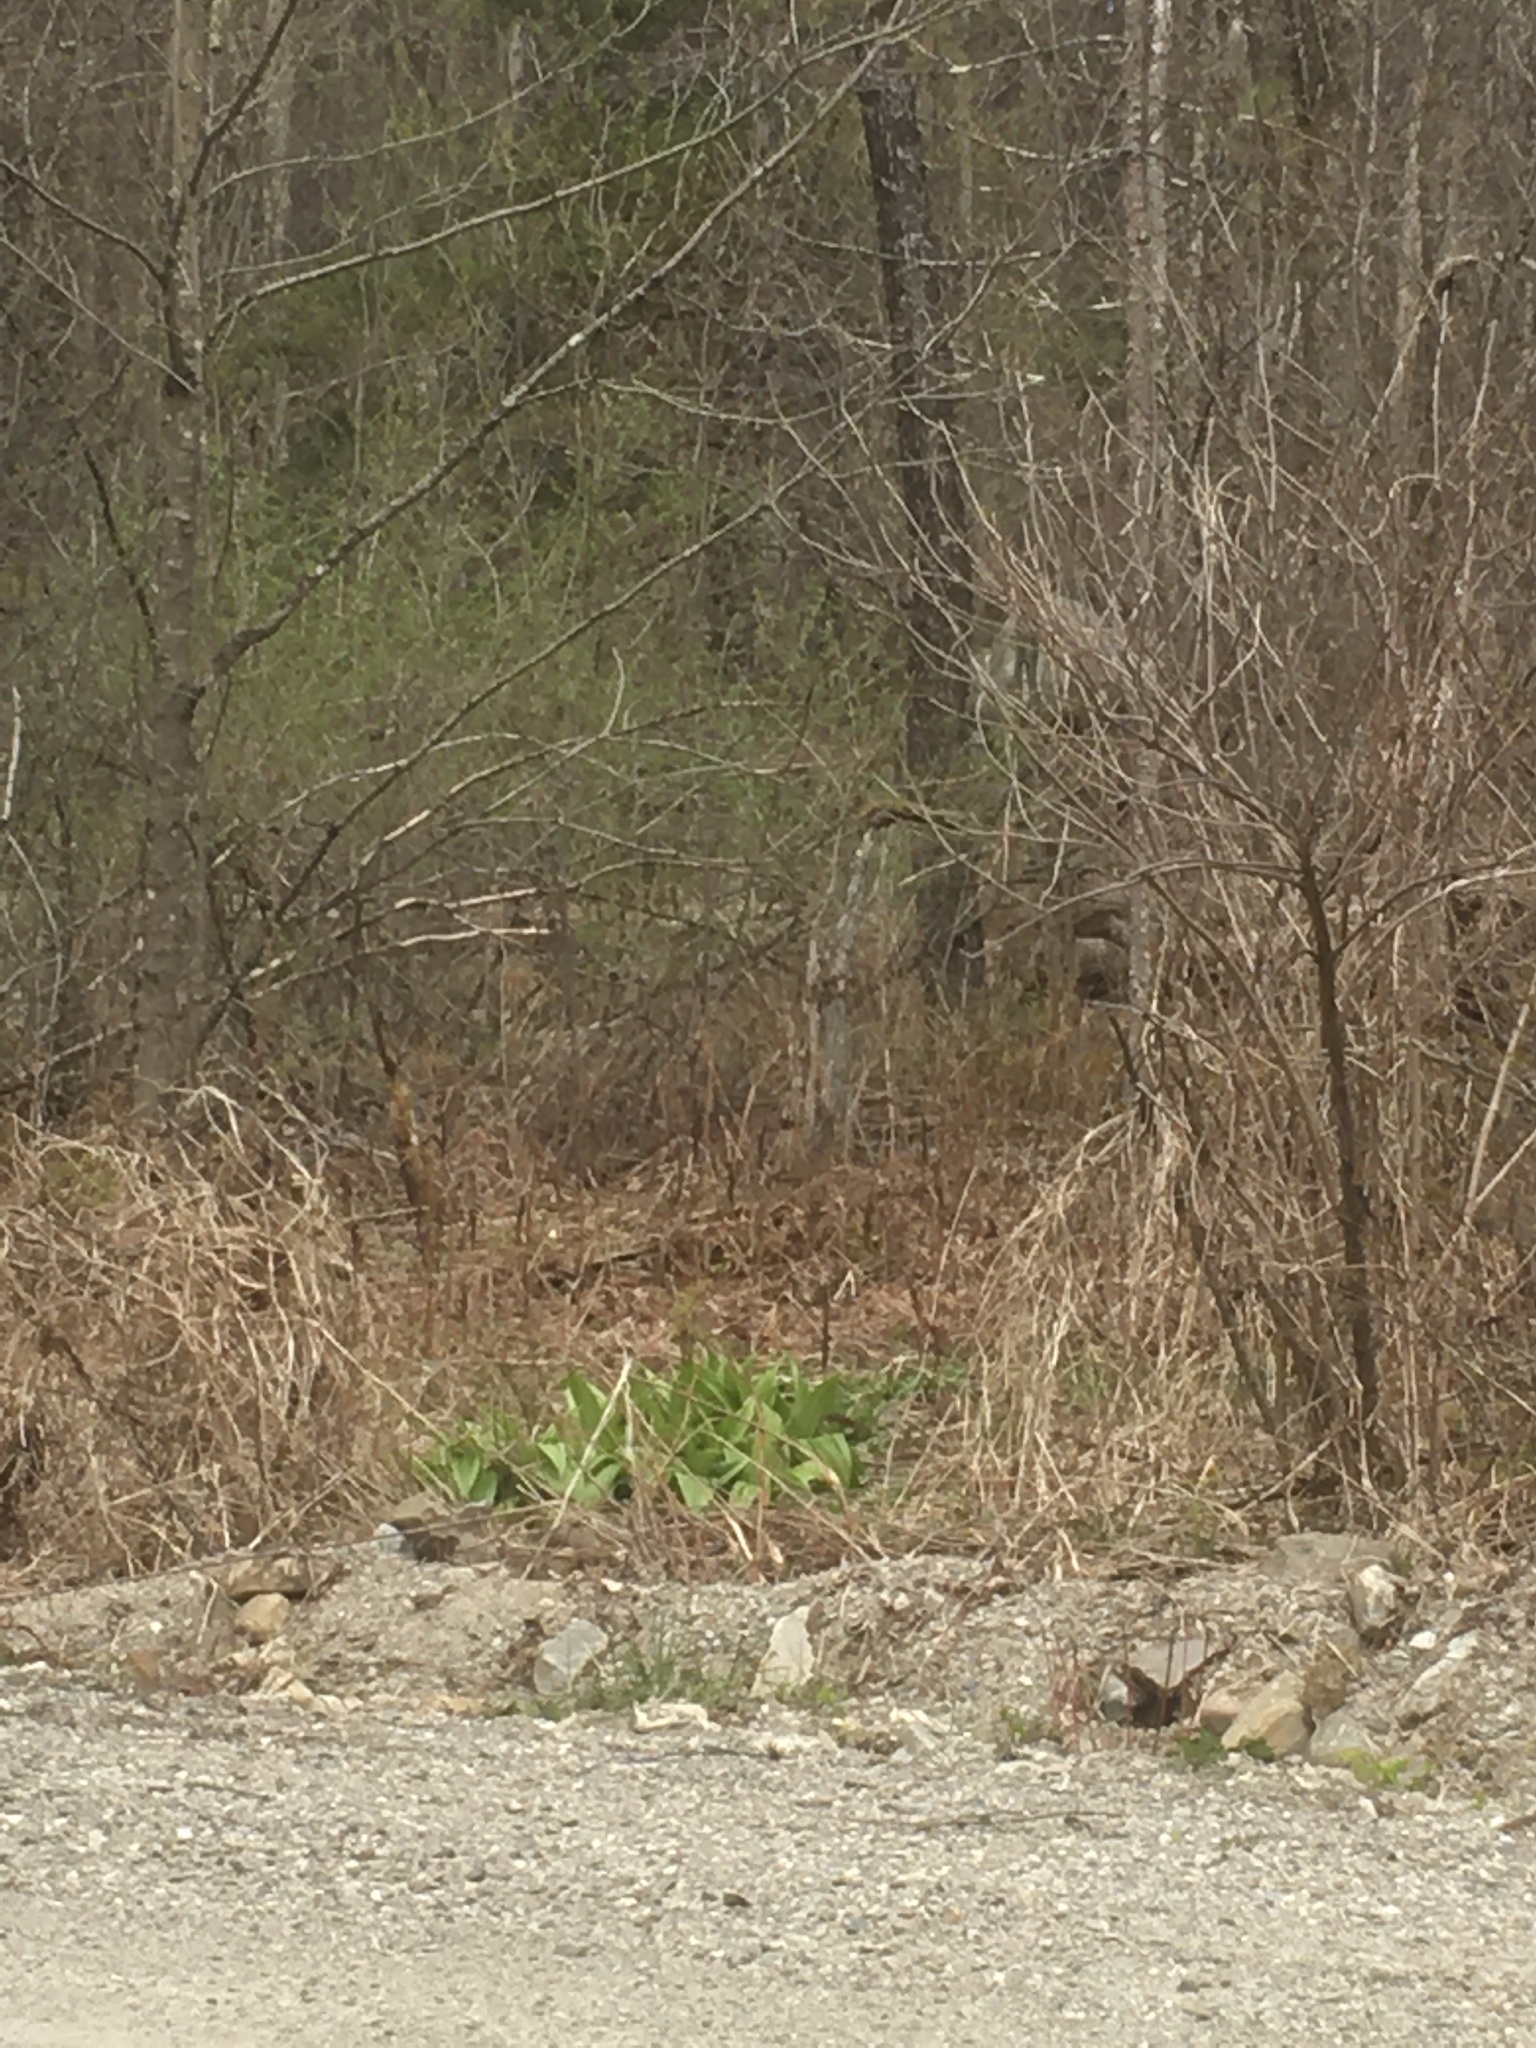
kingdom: Plantae
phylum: Tracheophyta
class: Liliopsida
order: Liliales
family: Melanthiaceae
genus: Veratrum
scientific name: Veratrum viride
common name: American false hellebore
